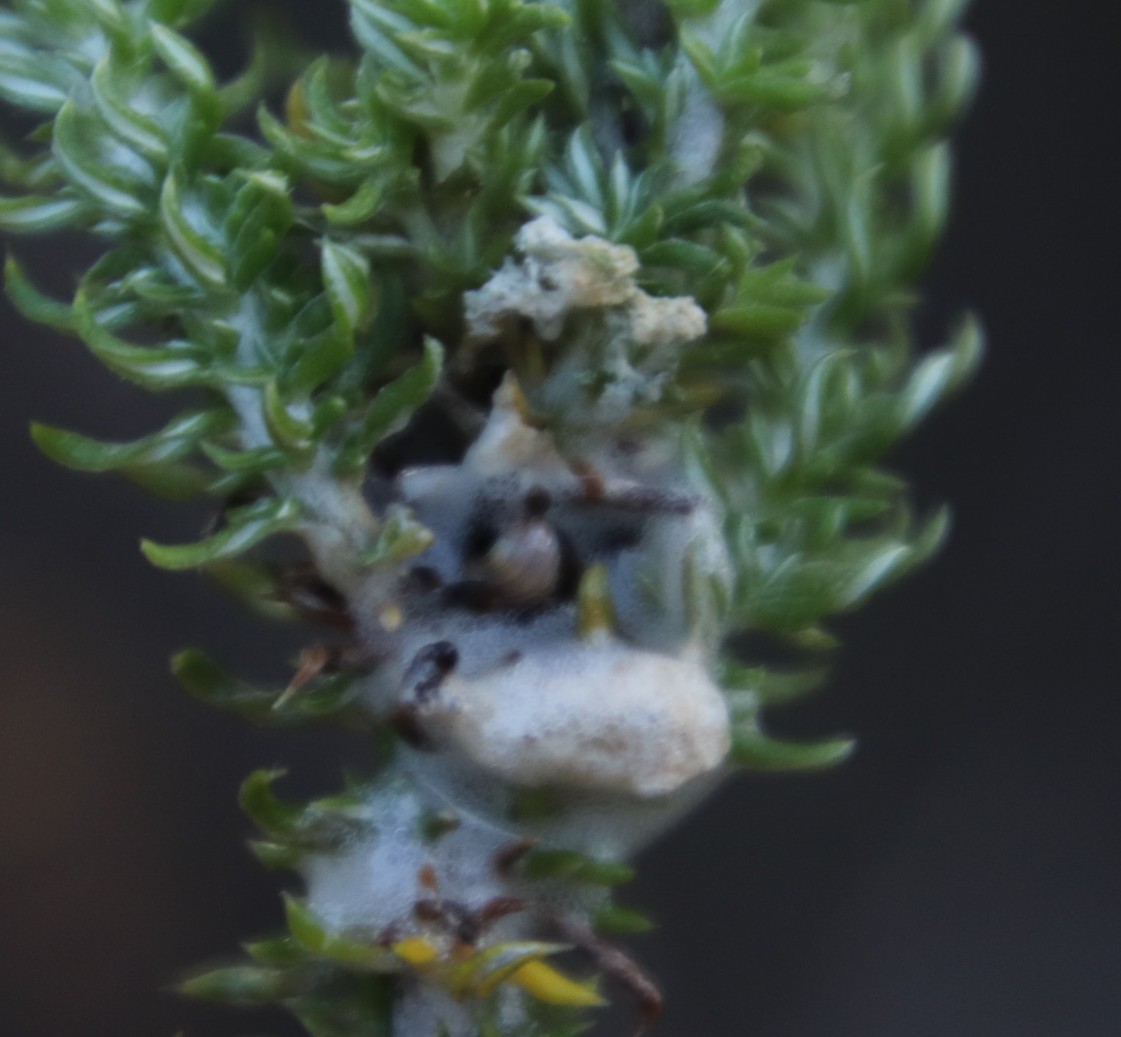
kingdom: Plantae
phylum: Tracheophyta
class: Magnoliopsida
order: Asterales
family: Asteraceae
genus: Metalasia
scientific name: Metalasia muricata
